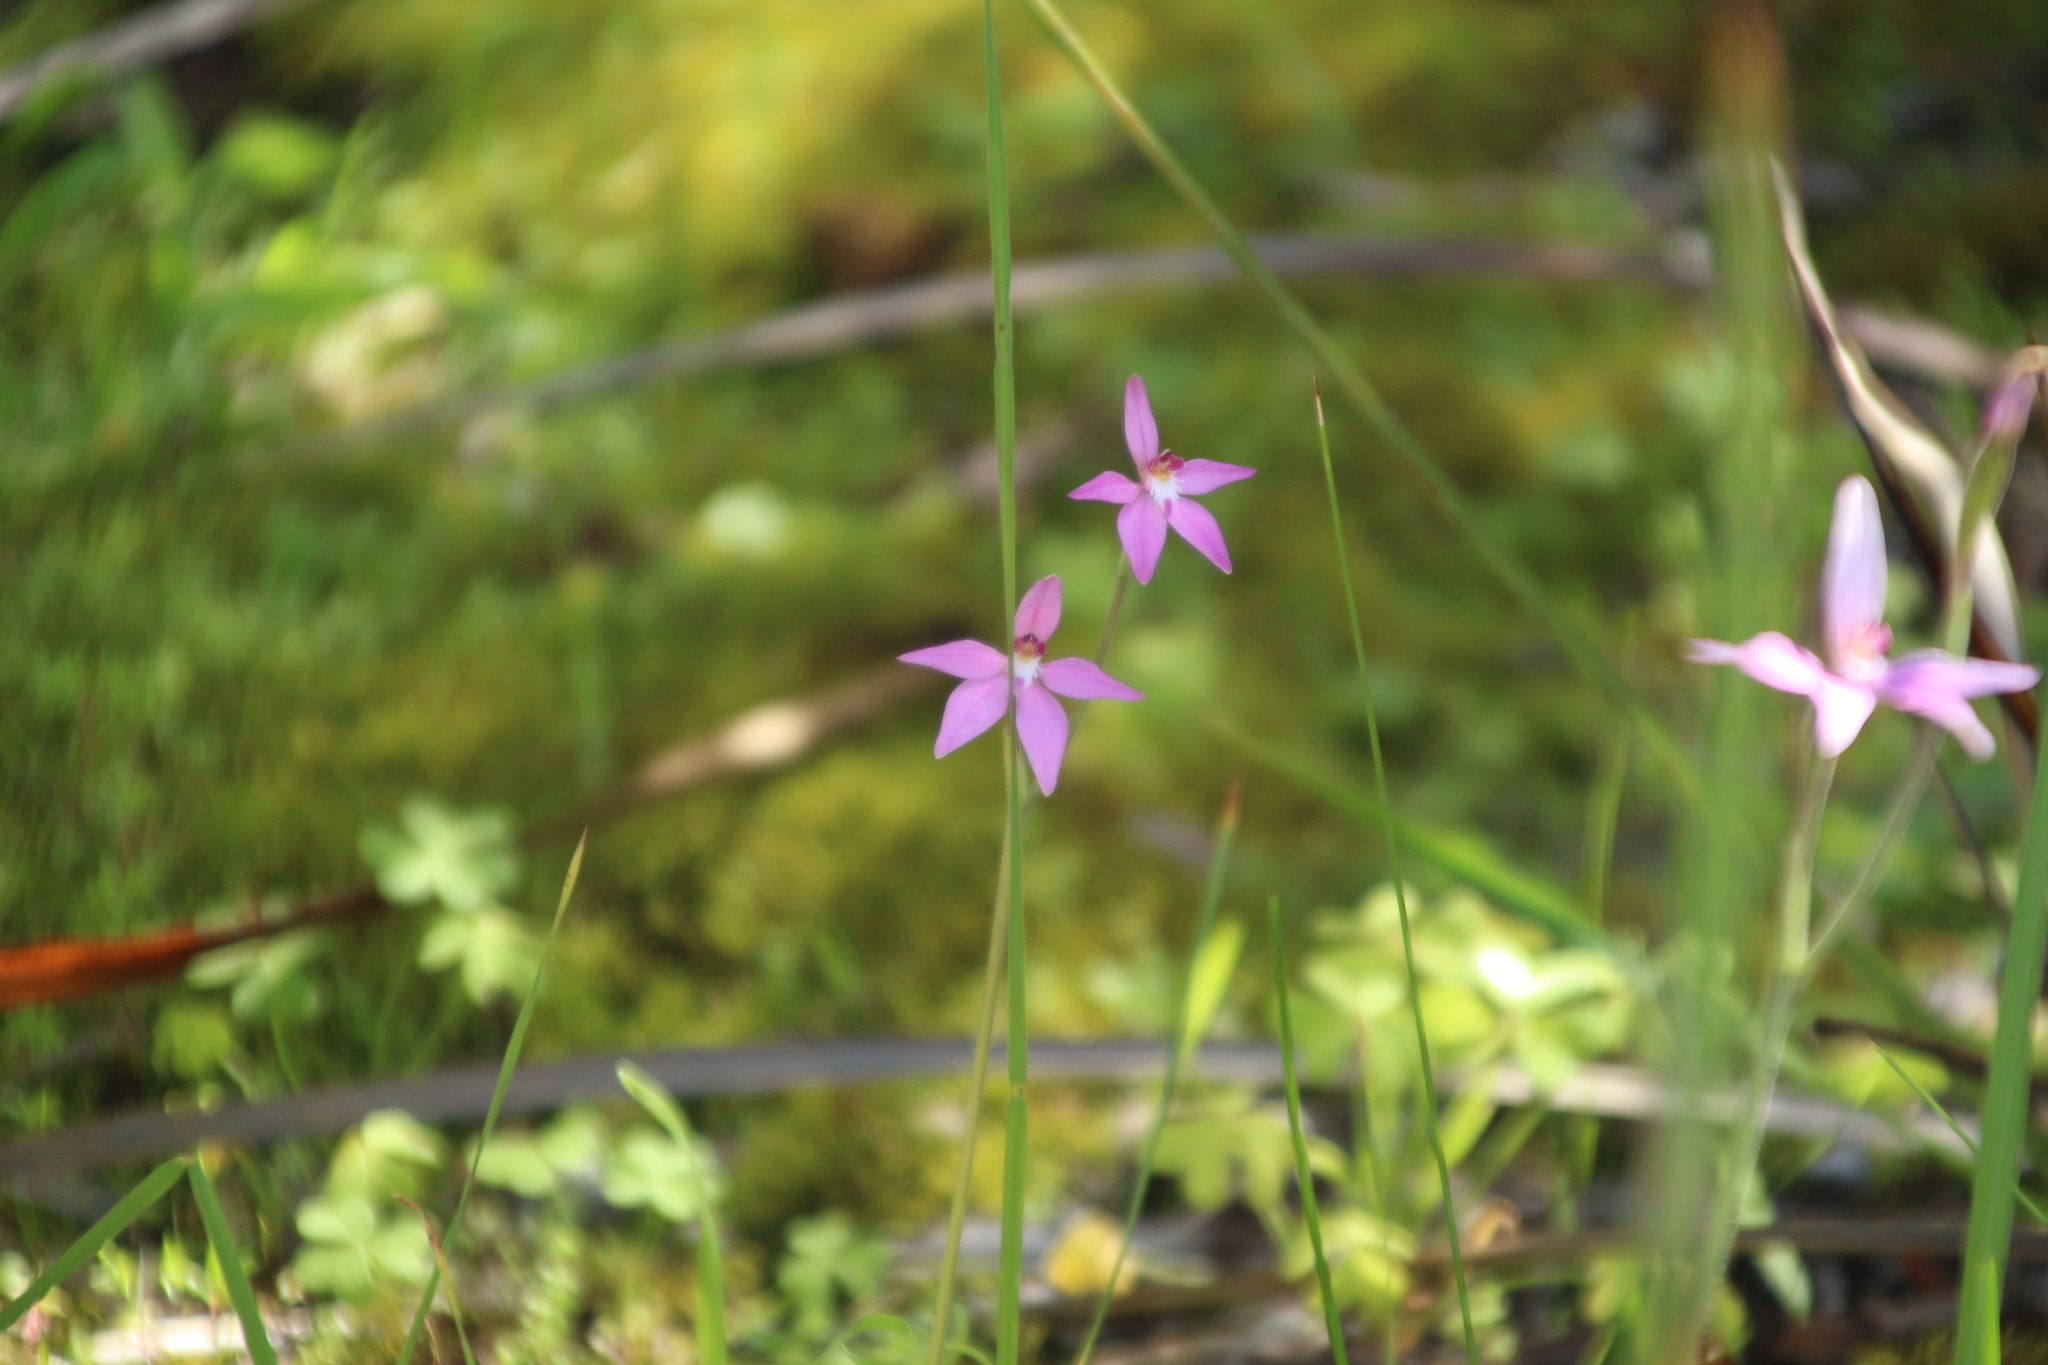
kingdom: Plantae
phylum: Tracheophyta
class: Liliopsida
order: Asparagales
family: Orchidaceae
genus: Caladenia
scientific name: Caladenia latifolia
